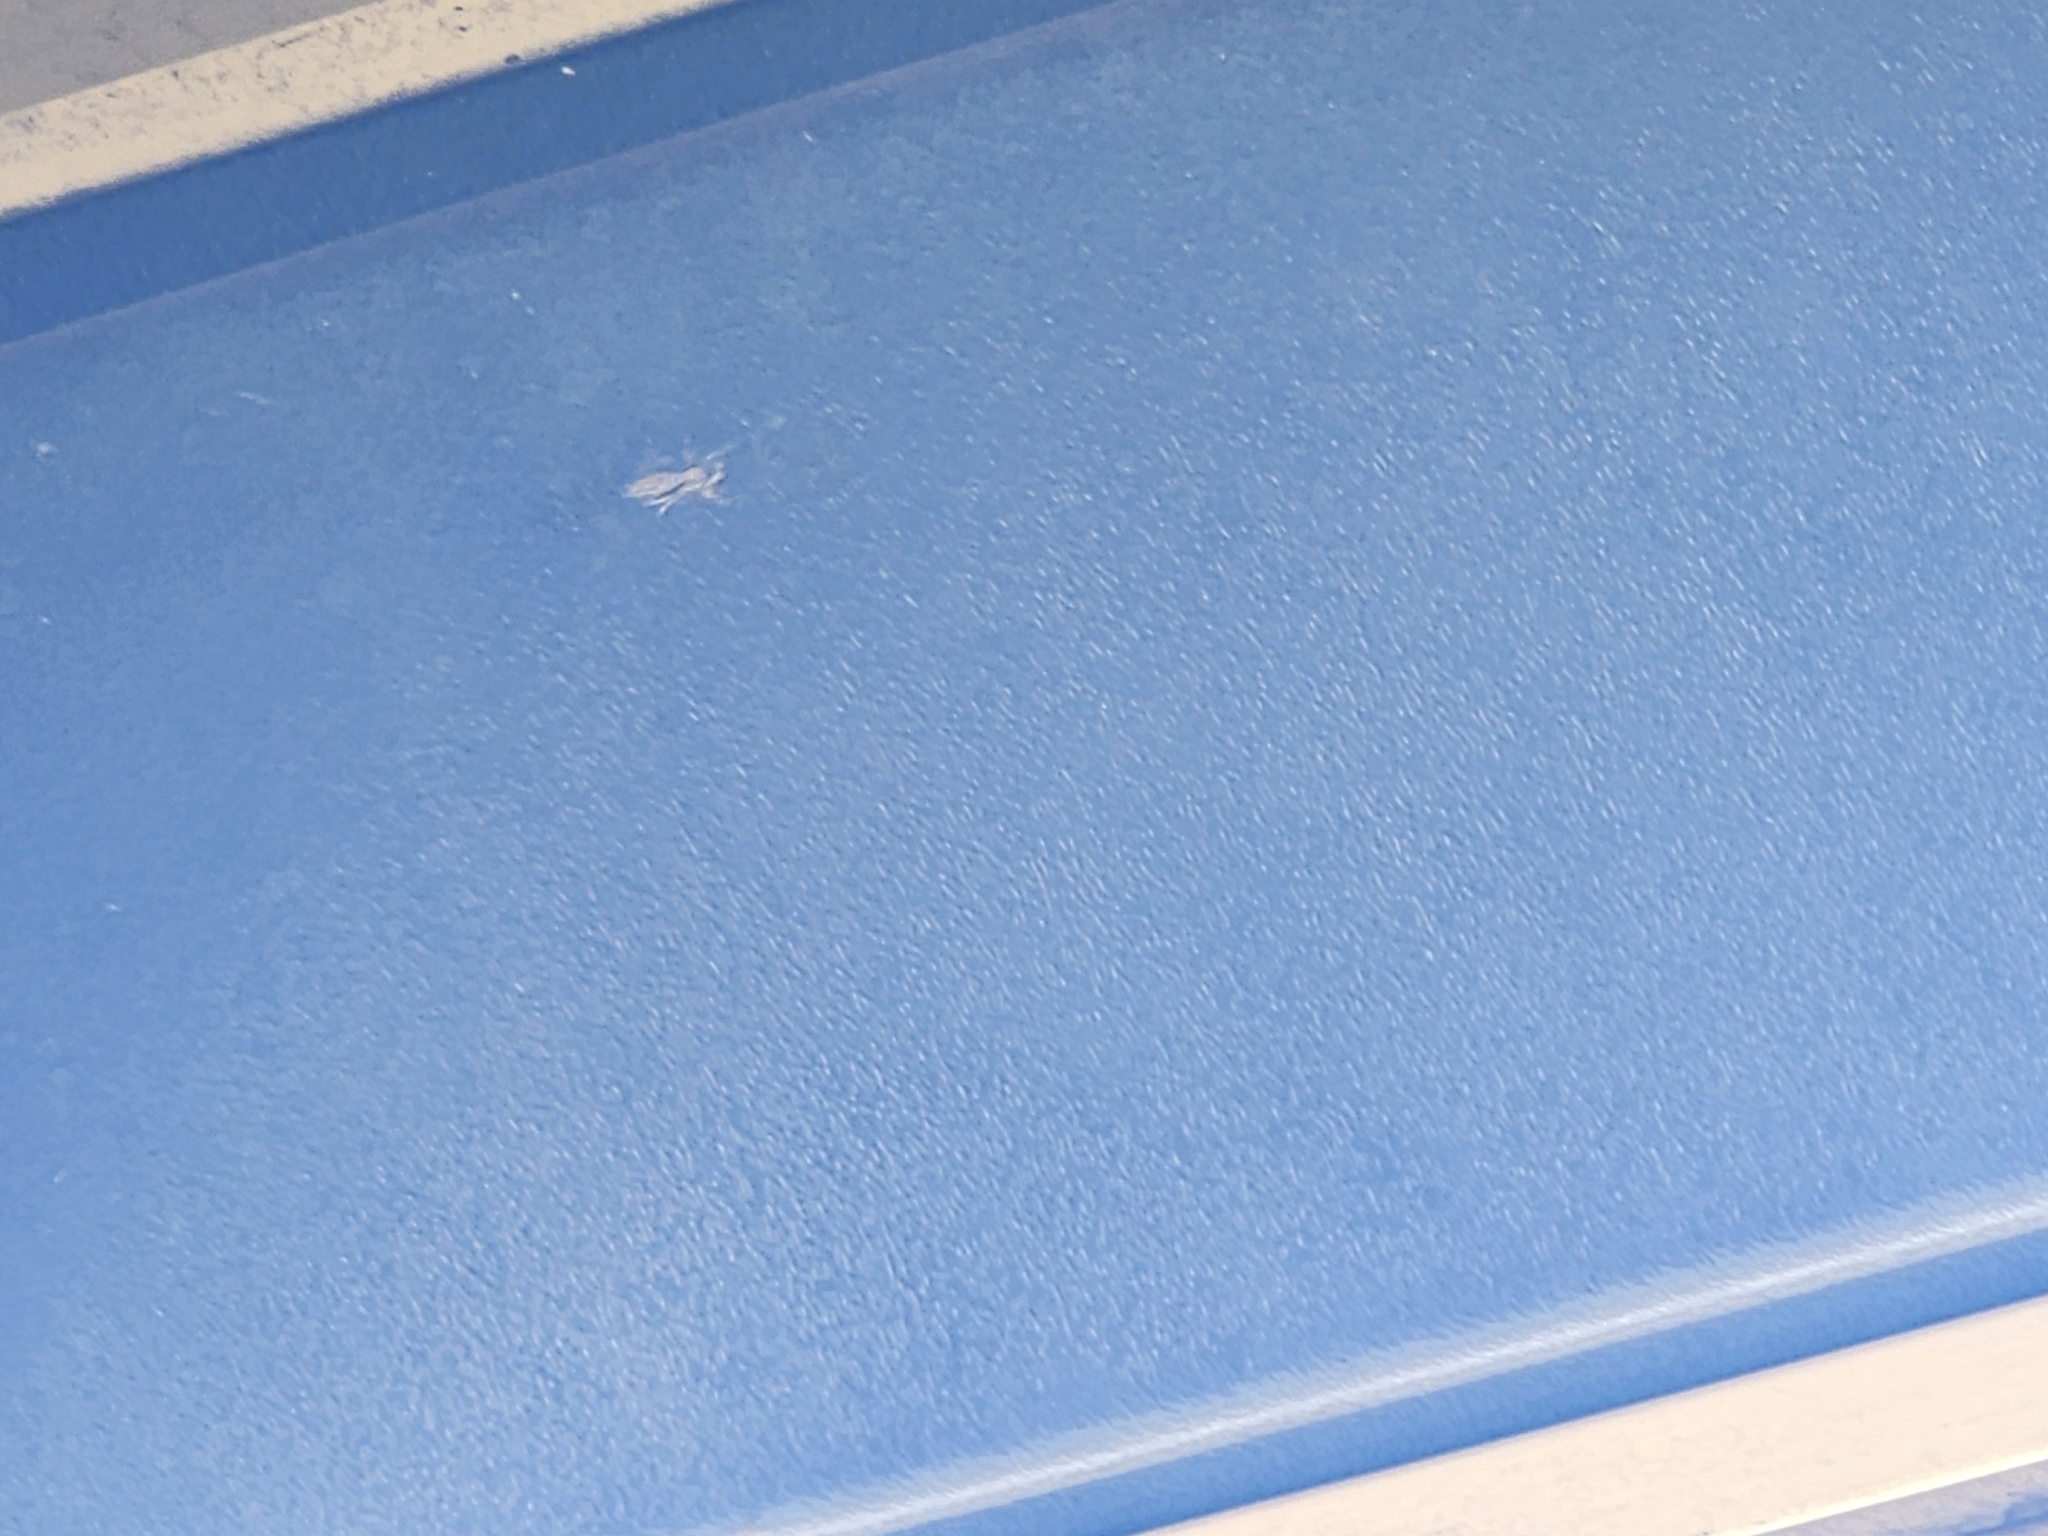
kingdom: Animalia
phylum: Arthropoda
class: Arachnida
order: Araneae
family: Salticidae
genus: Menemerus
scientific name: Menemerus bivittatus
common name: Gray wall jumper
